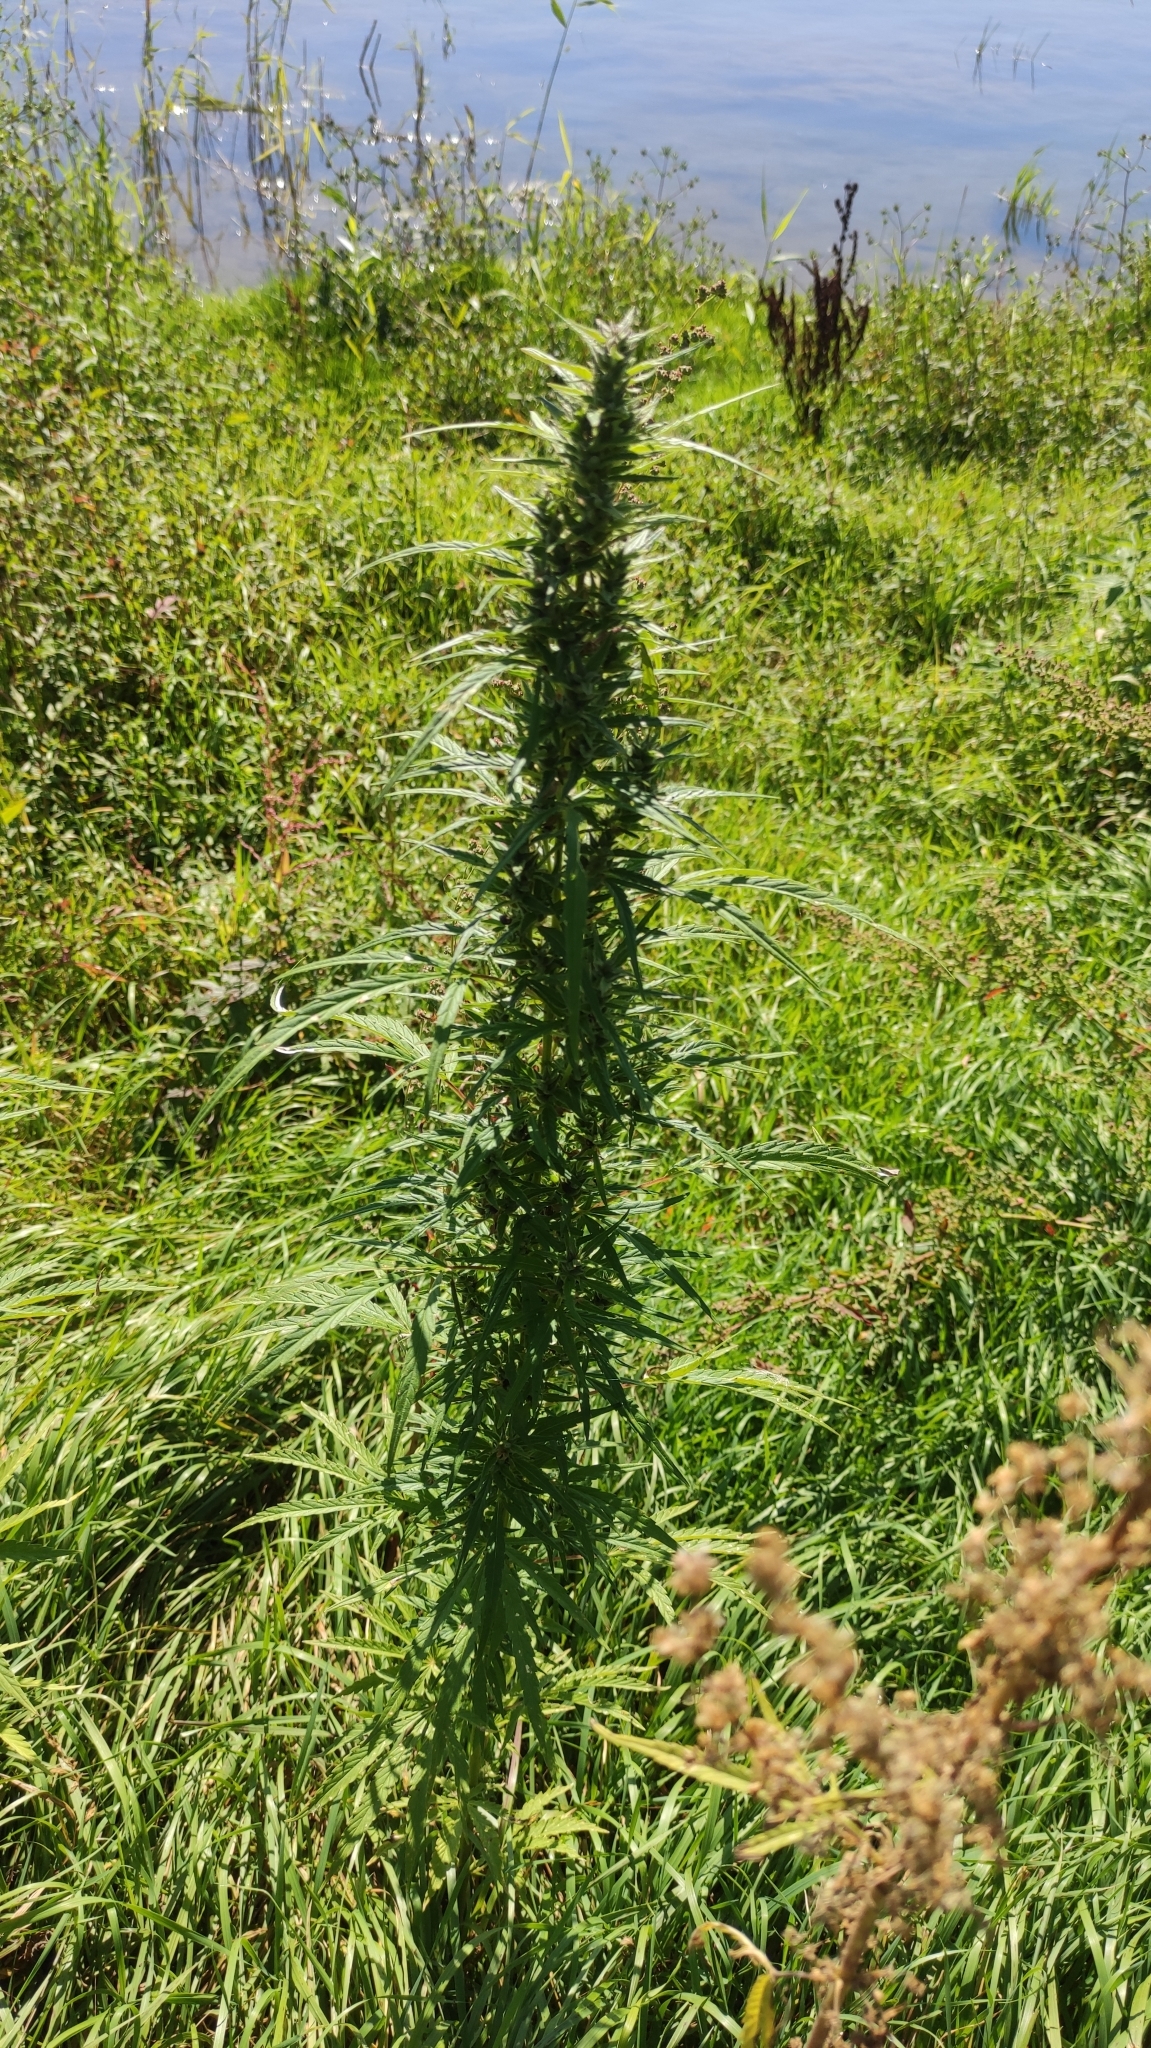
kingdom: Plantae
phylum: Tracheophyta
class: Magnoliopsida
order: Rosales
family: Cannabaceae
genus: Cannabis
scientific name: Cannabis sativa
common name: Hemp
